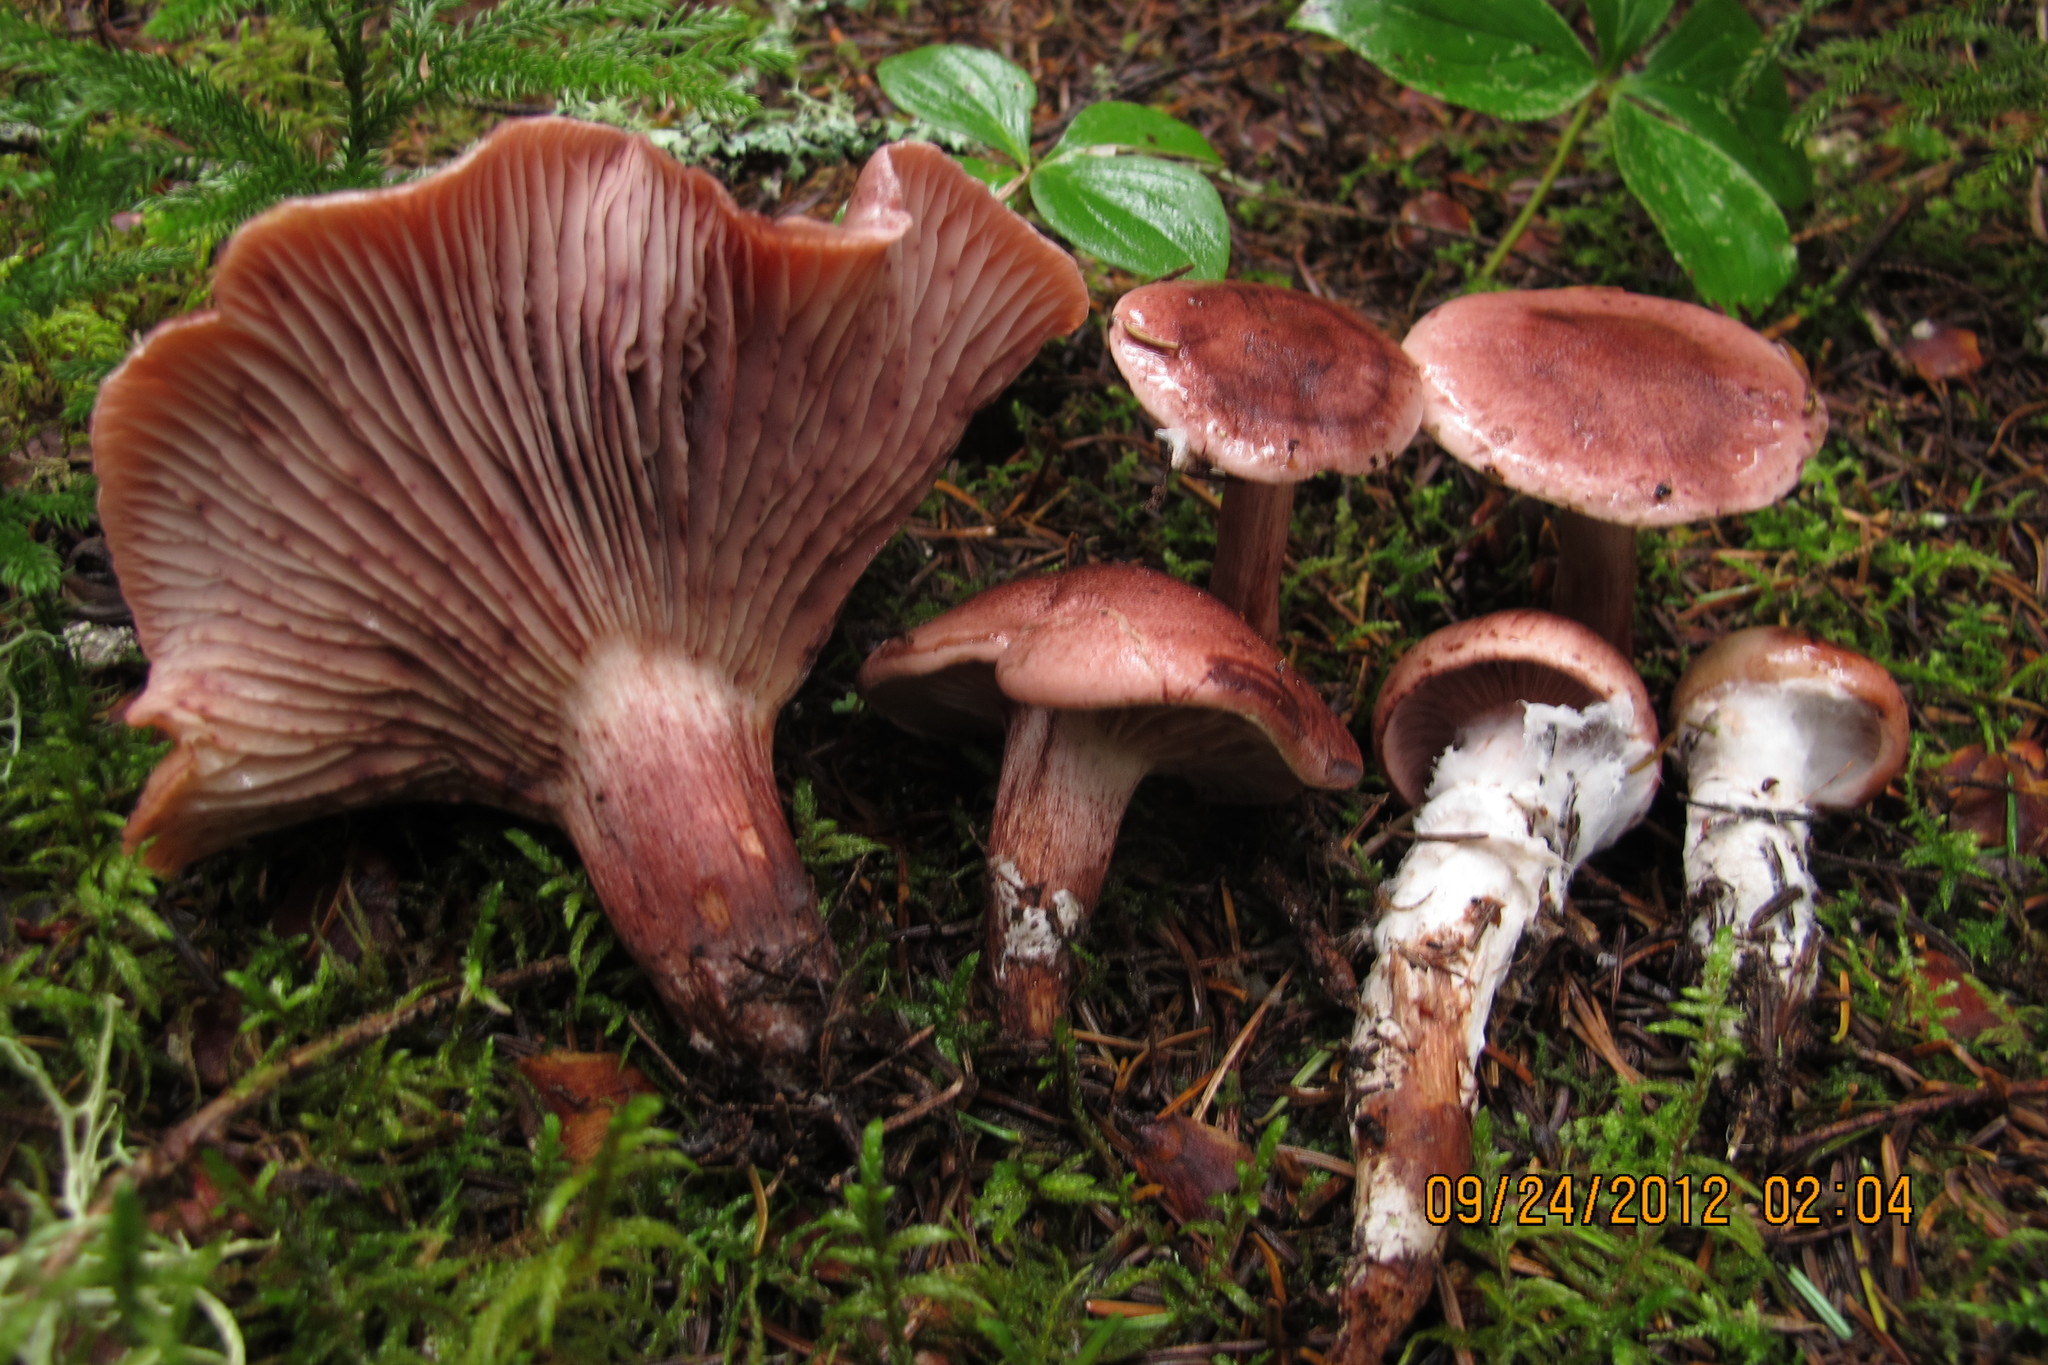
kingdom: Fungi
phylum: Basidiomycota
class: Agaricomycetes
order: Agaricales
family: Hygrophoraceae
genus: Hygrophorus
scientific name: Hygrophorus purpurascens
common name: Veiled purple waxcap
